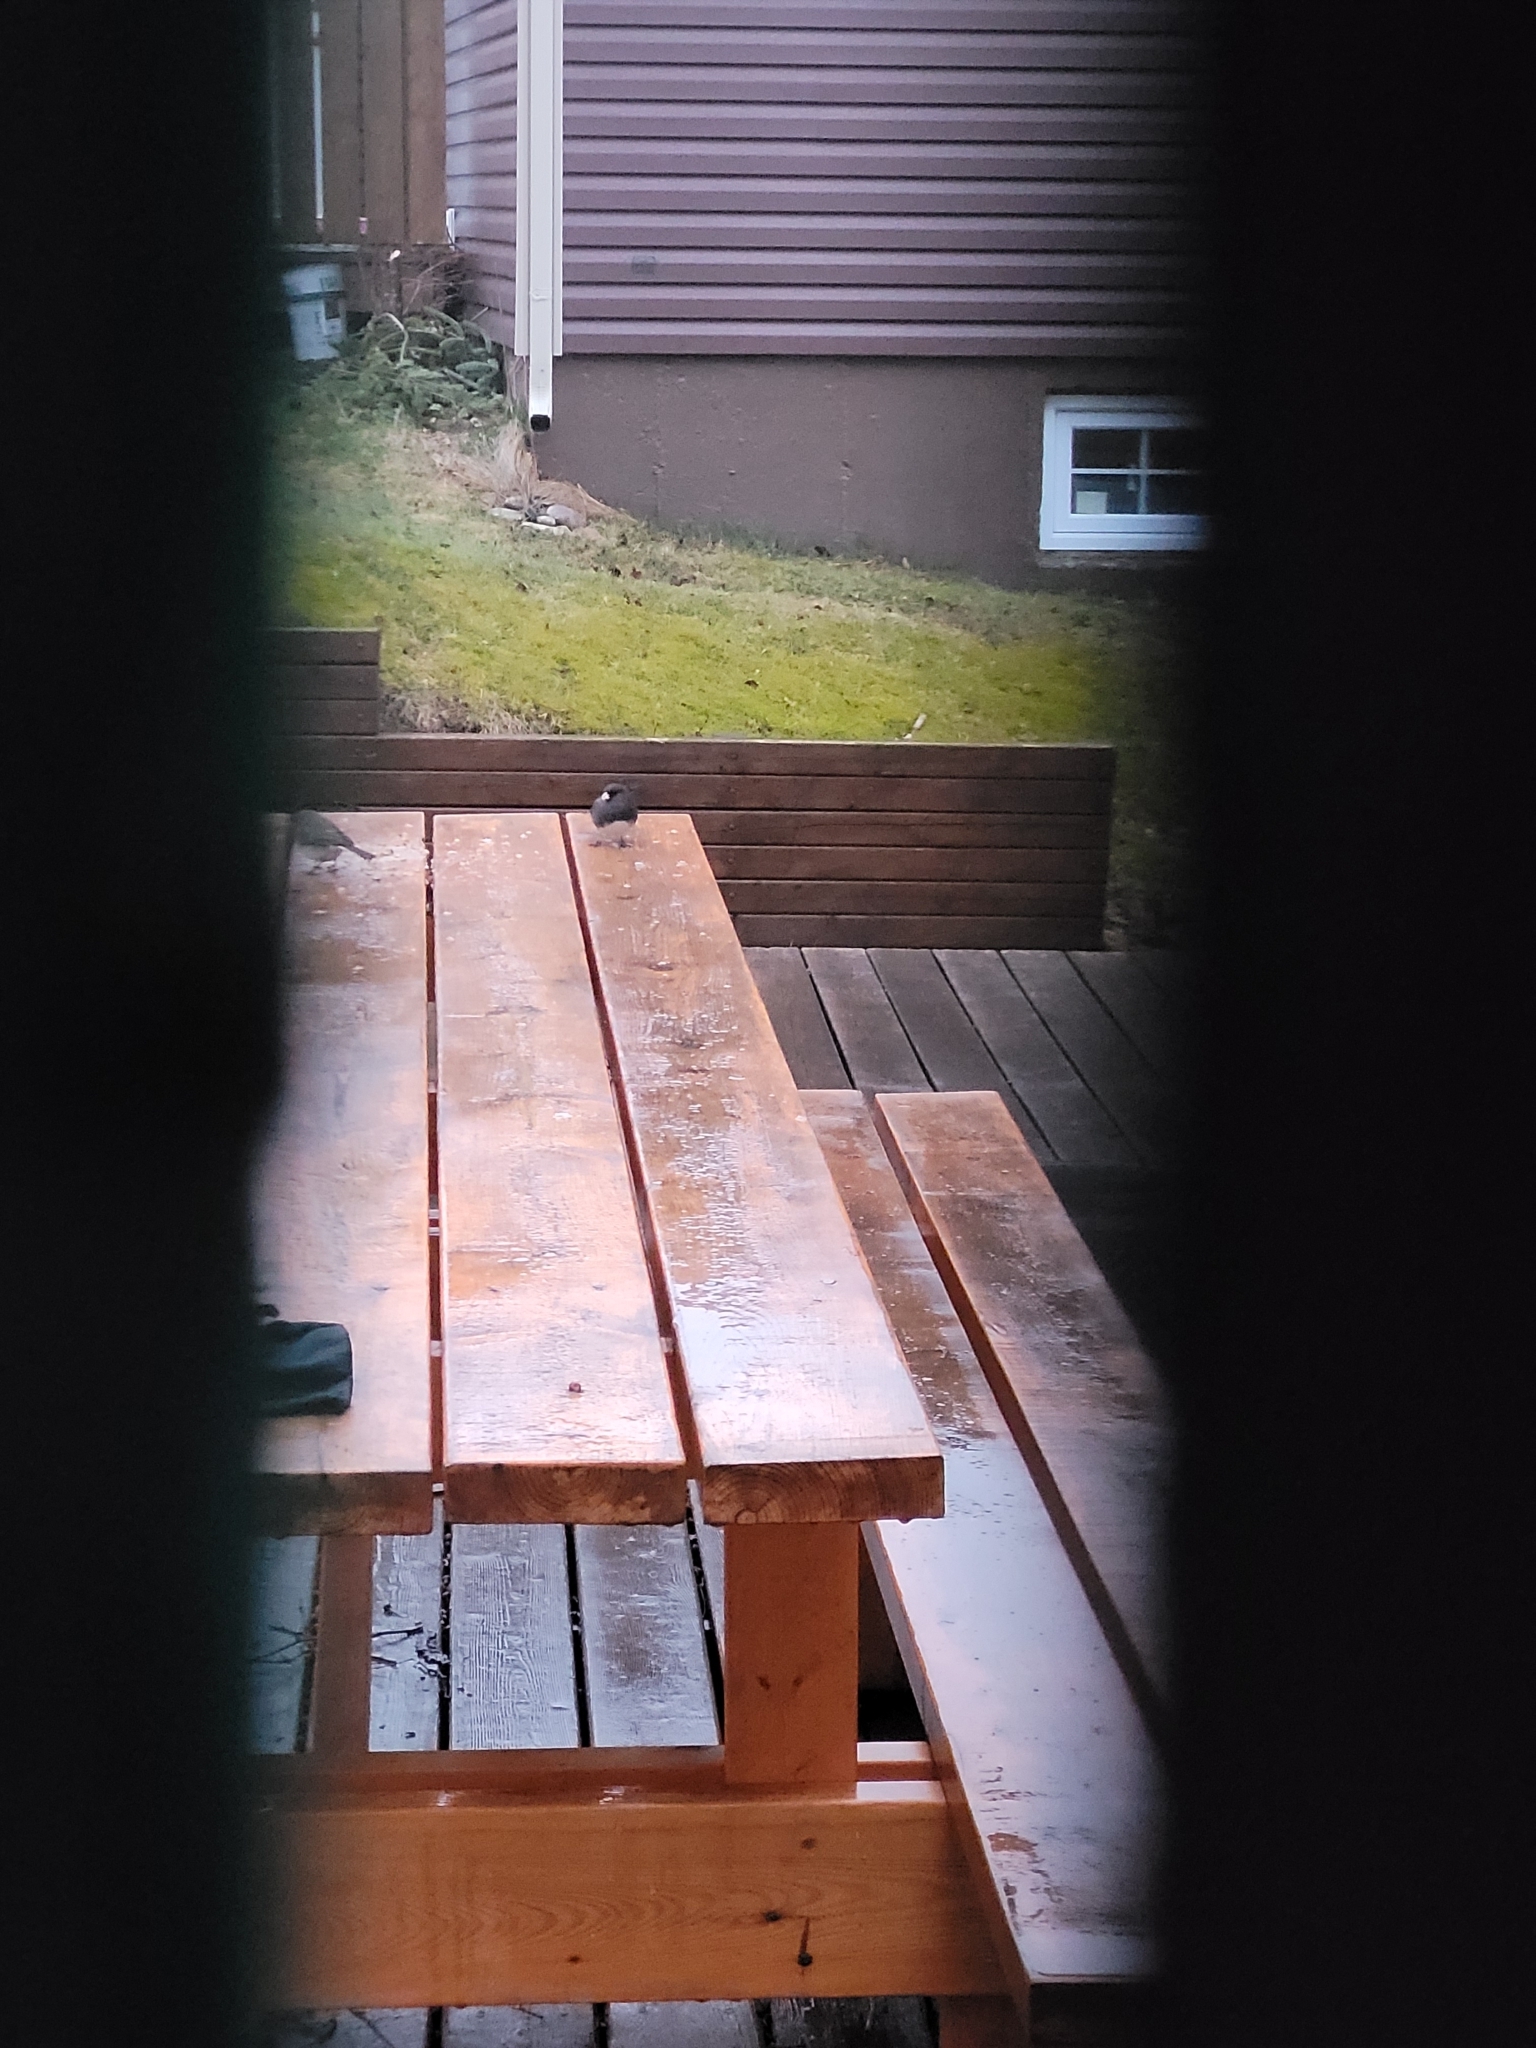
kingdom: Animalia
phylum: Chordata
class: Aves
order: Passeriformes
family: Passerellidae
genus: Junco
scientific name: Junco hyemalis
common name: Dark-eyed junco
